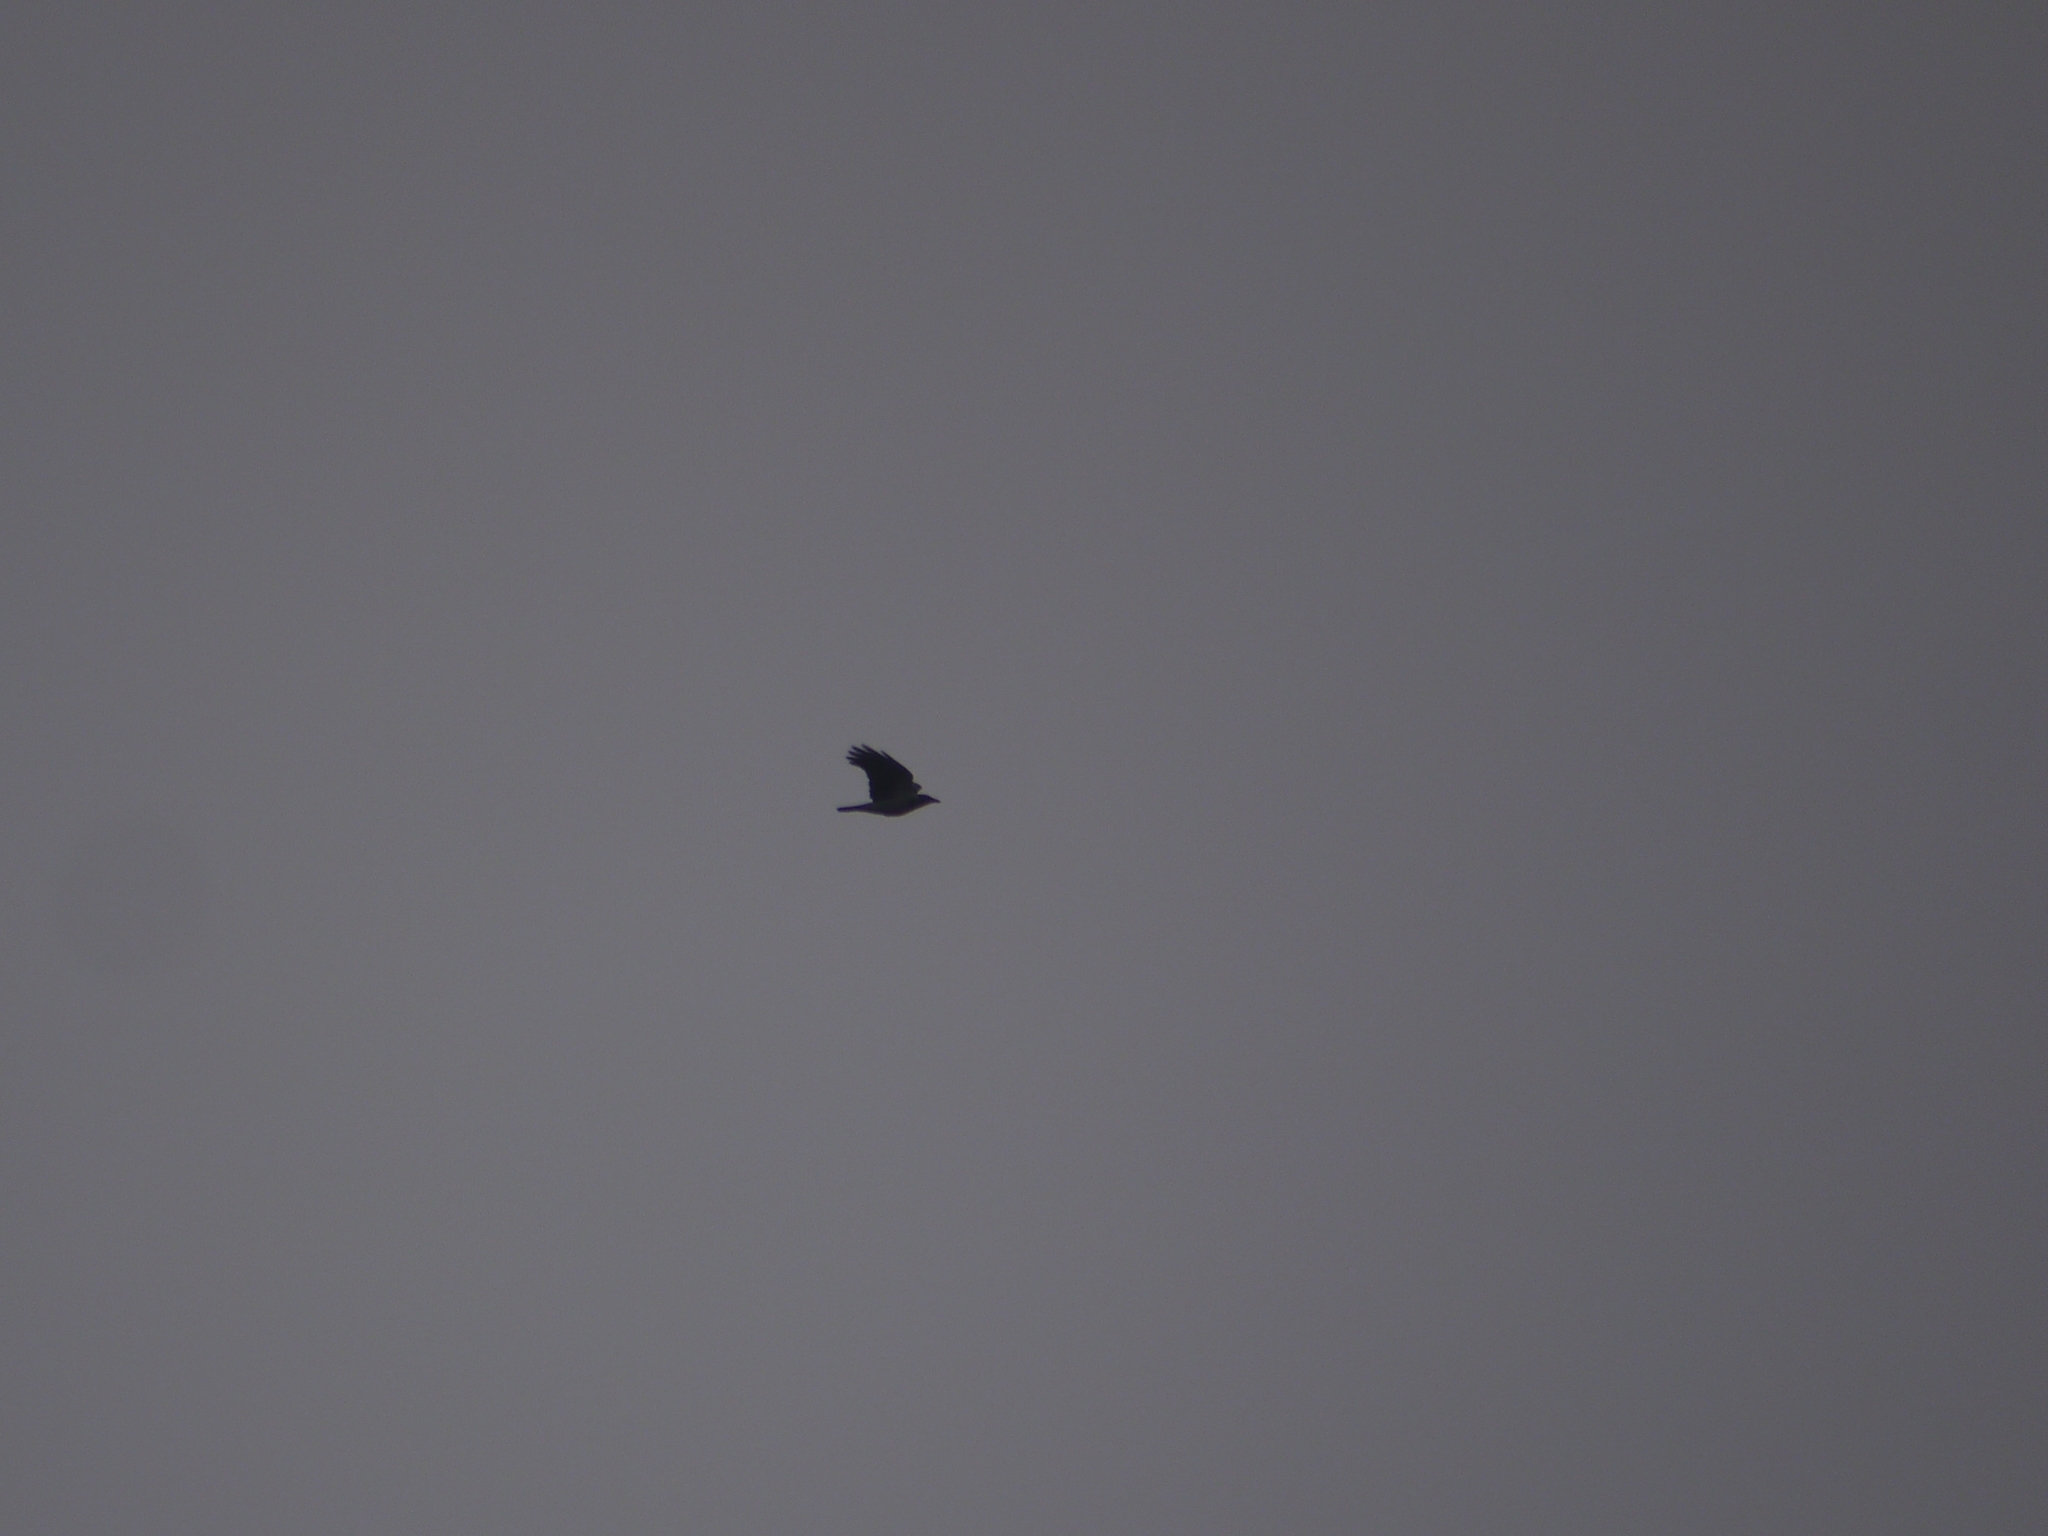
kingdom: Animalia
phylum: Chordata
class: Aves
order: Passeriformes
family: Corvidae
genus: Corvus
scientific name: Corvus cornix
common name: Hooded crow
